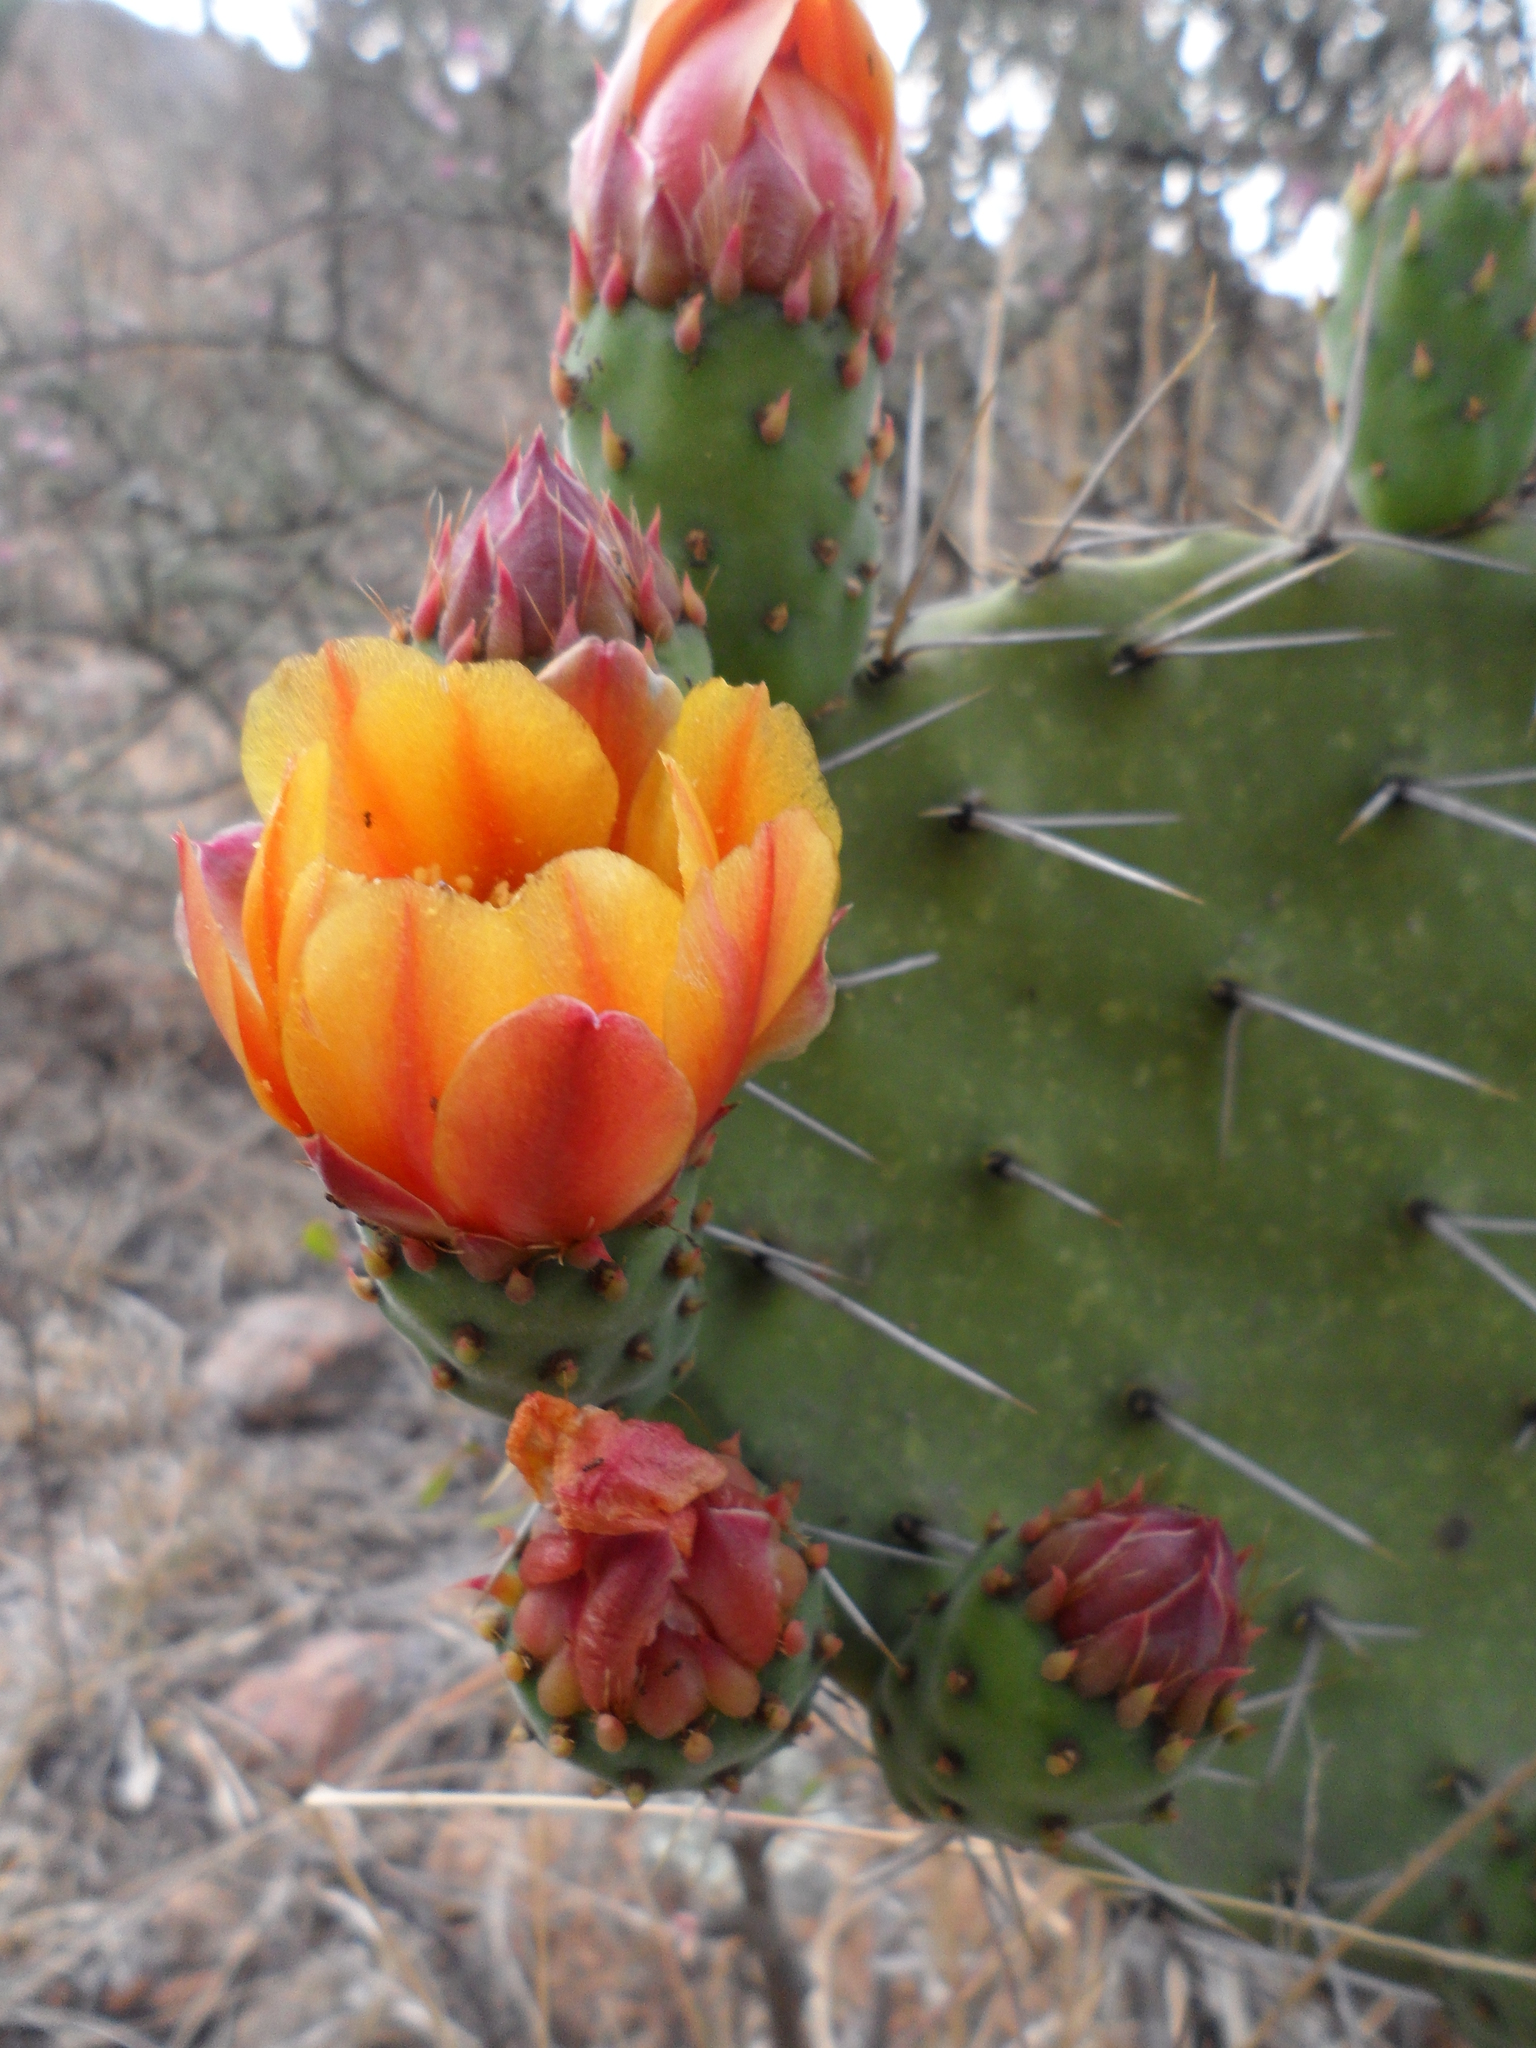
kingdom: Plantae
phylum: Tracheophyta
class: Magnoliopsida
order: Caryophyllales
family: Cactaceae
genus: Opuntia
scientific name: Opuntia tomentosa
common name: Woollyjoint pricklypear
